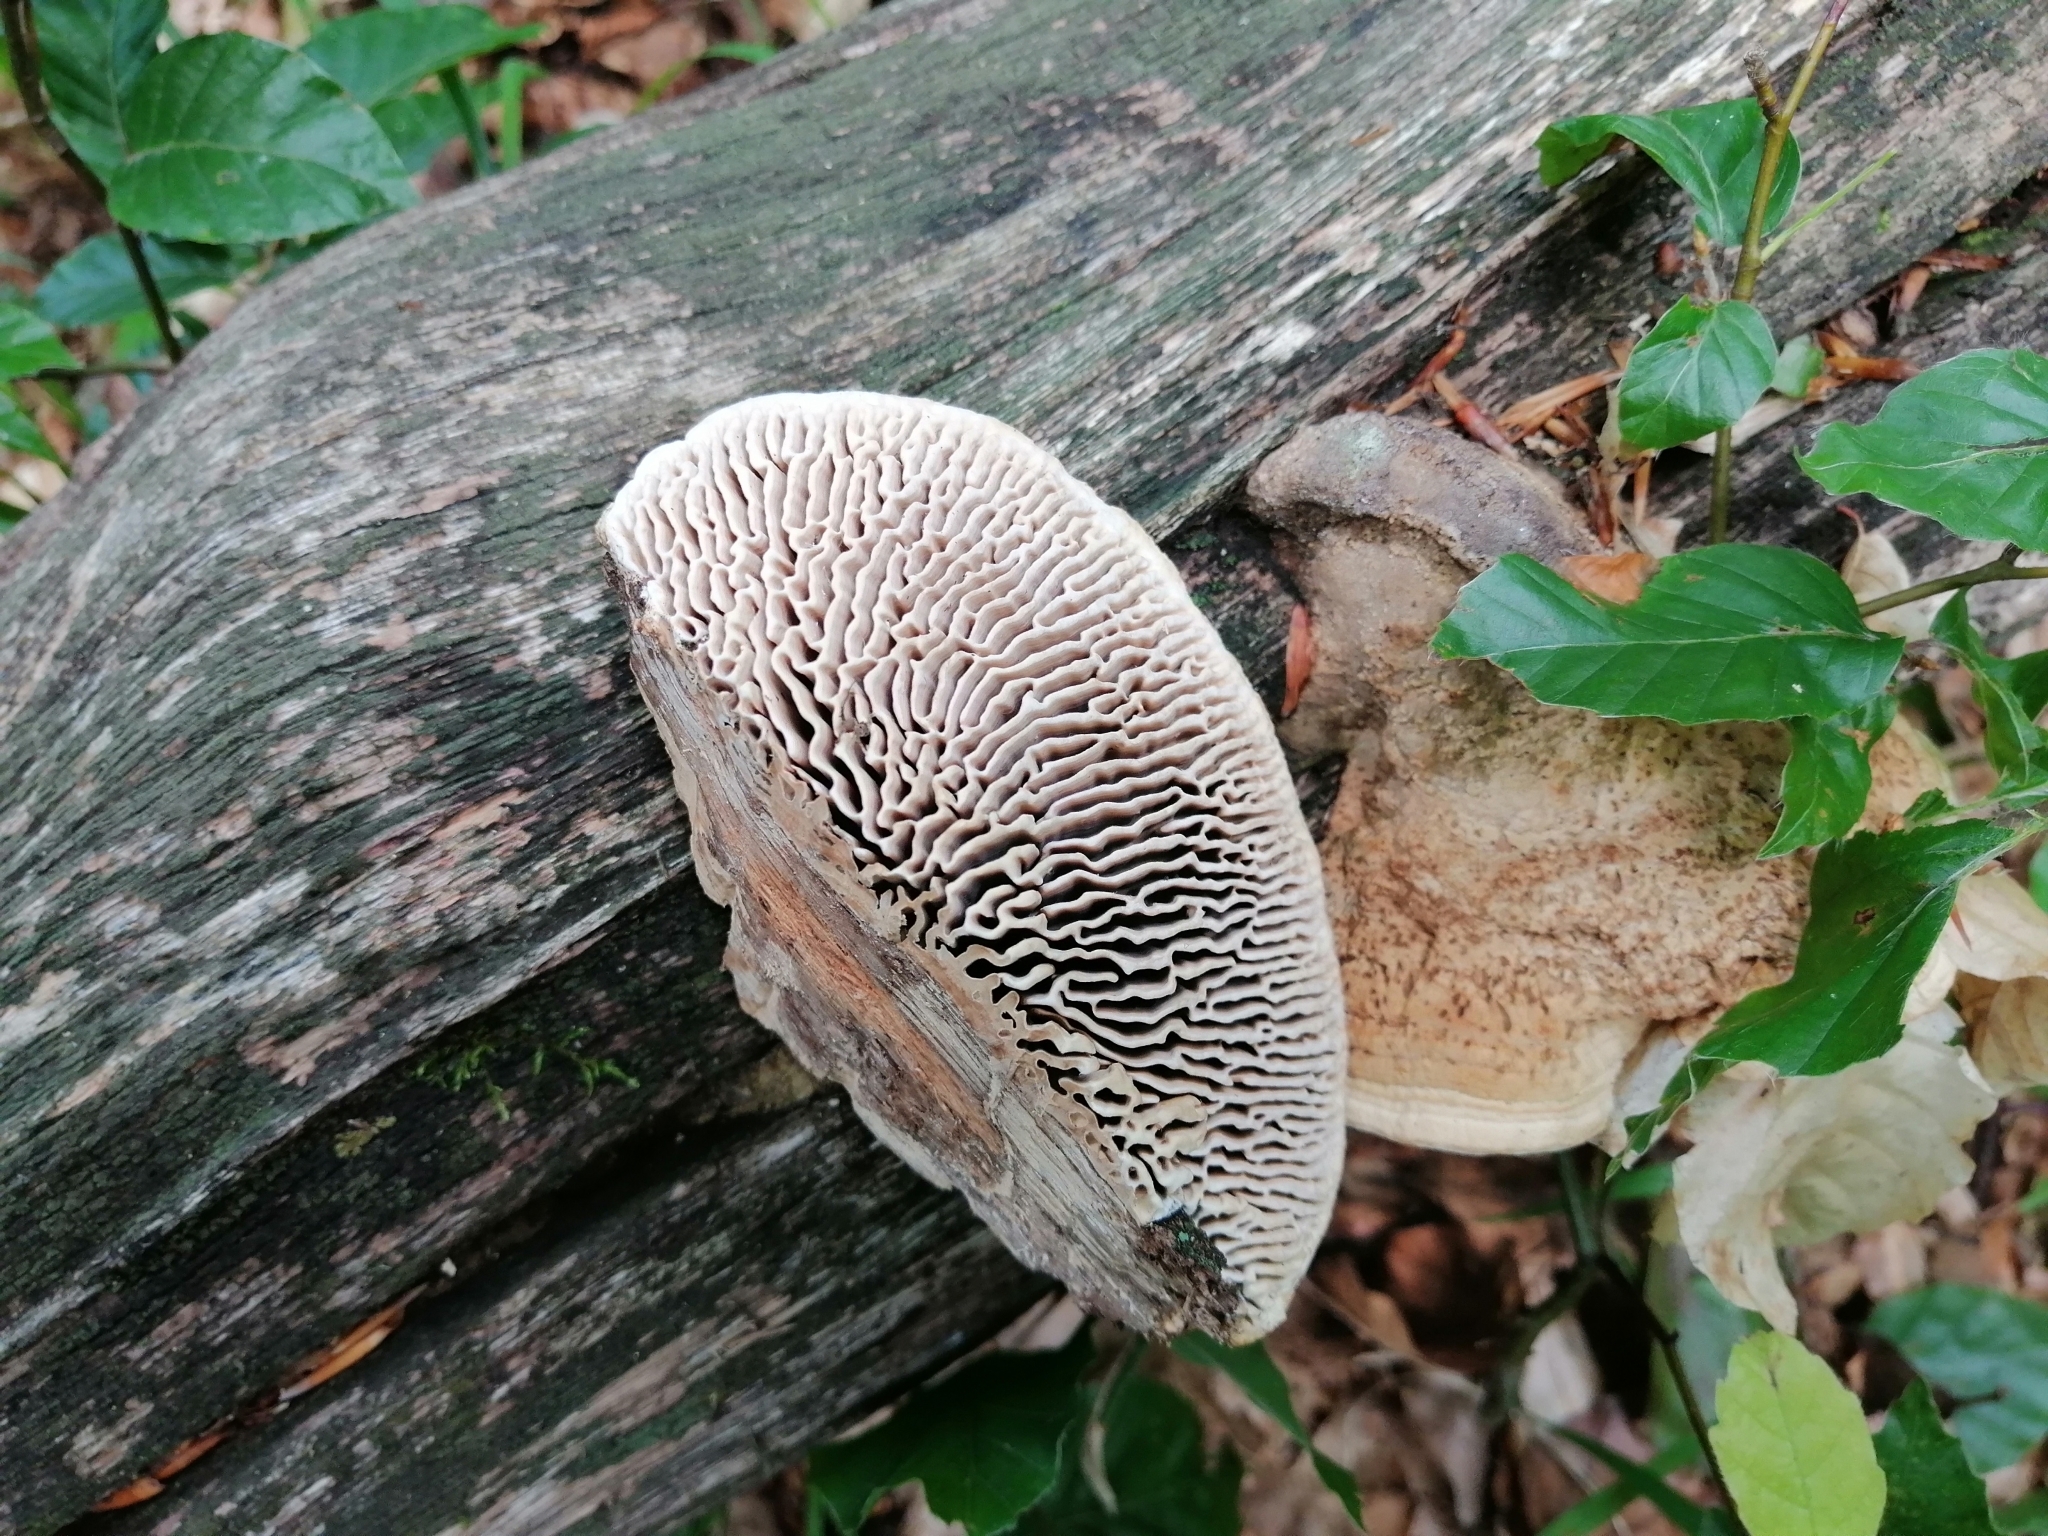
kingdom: Fungi
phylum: Basidiomycota
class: Agaricomycetes
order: Polyporales
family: Fomitopsidaceae
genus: Fomitopsis
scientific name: Fomitopsis
